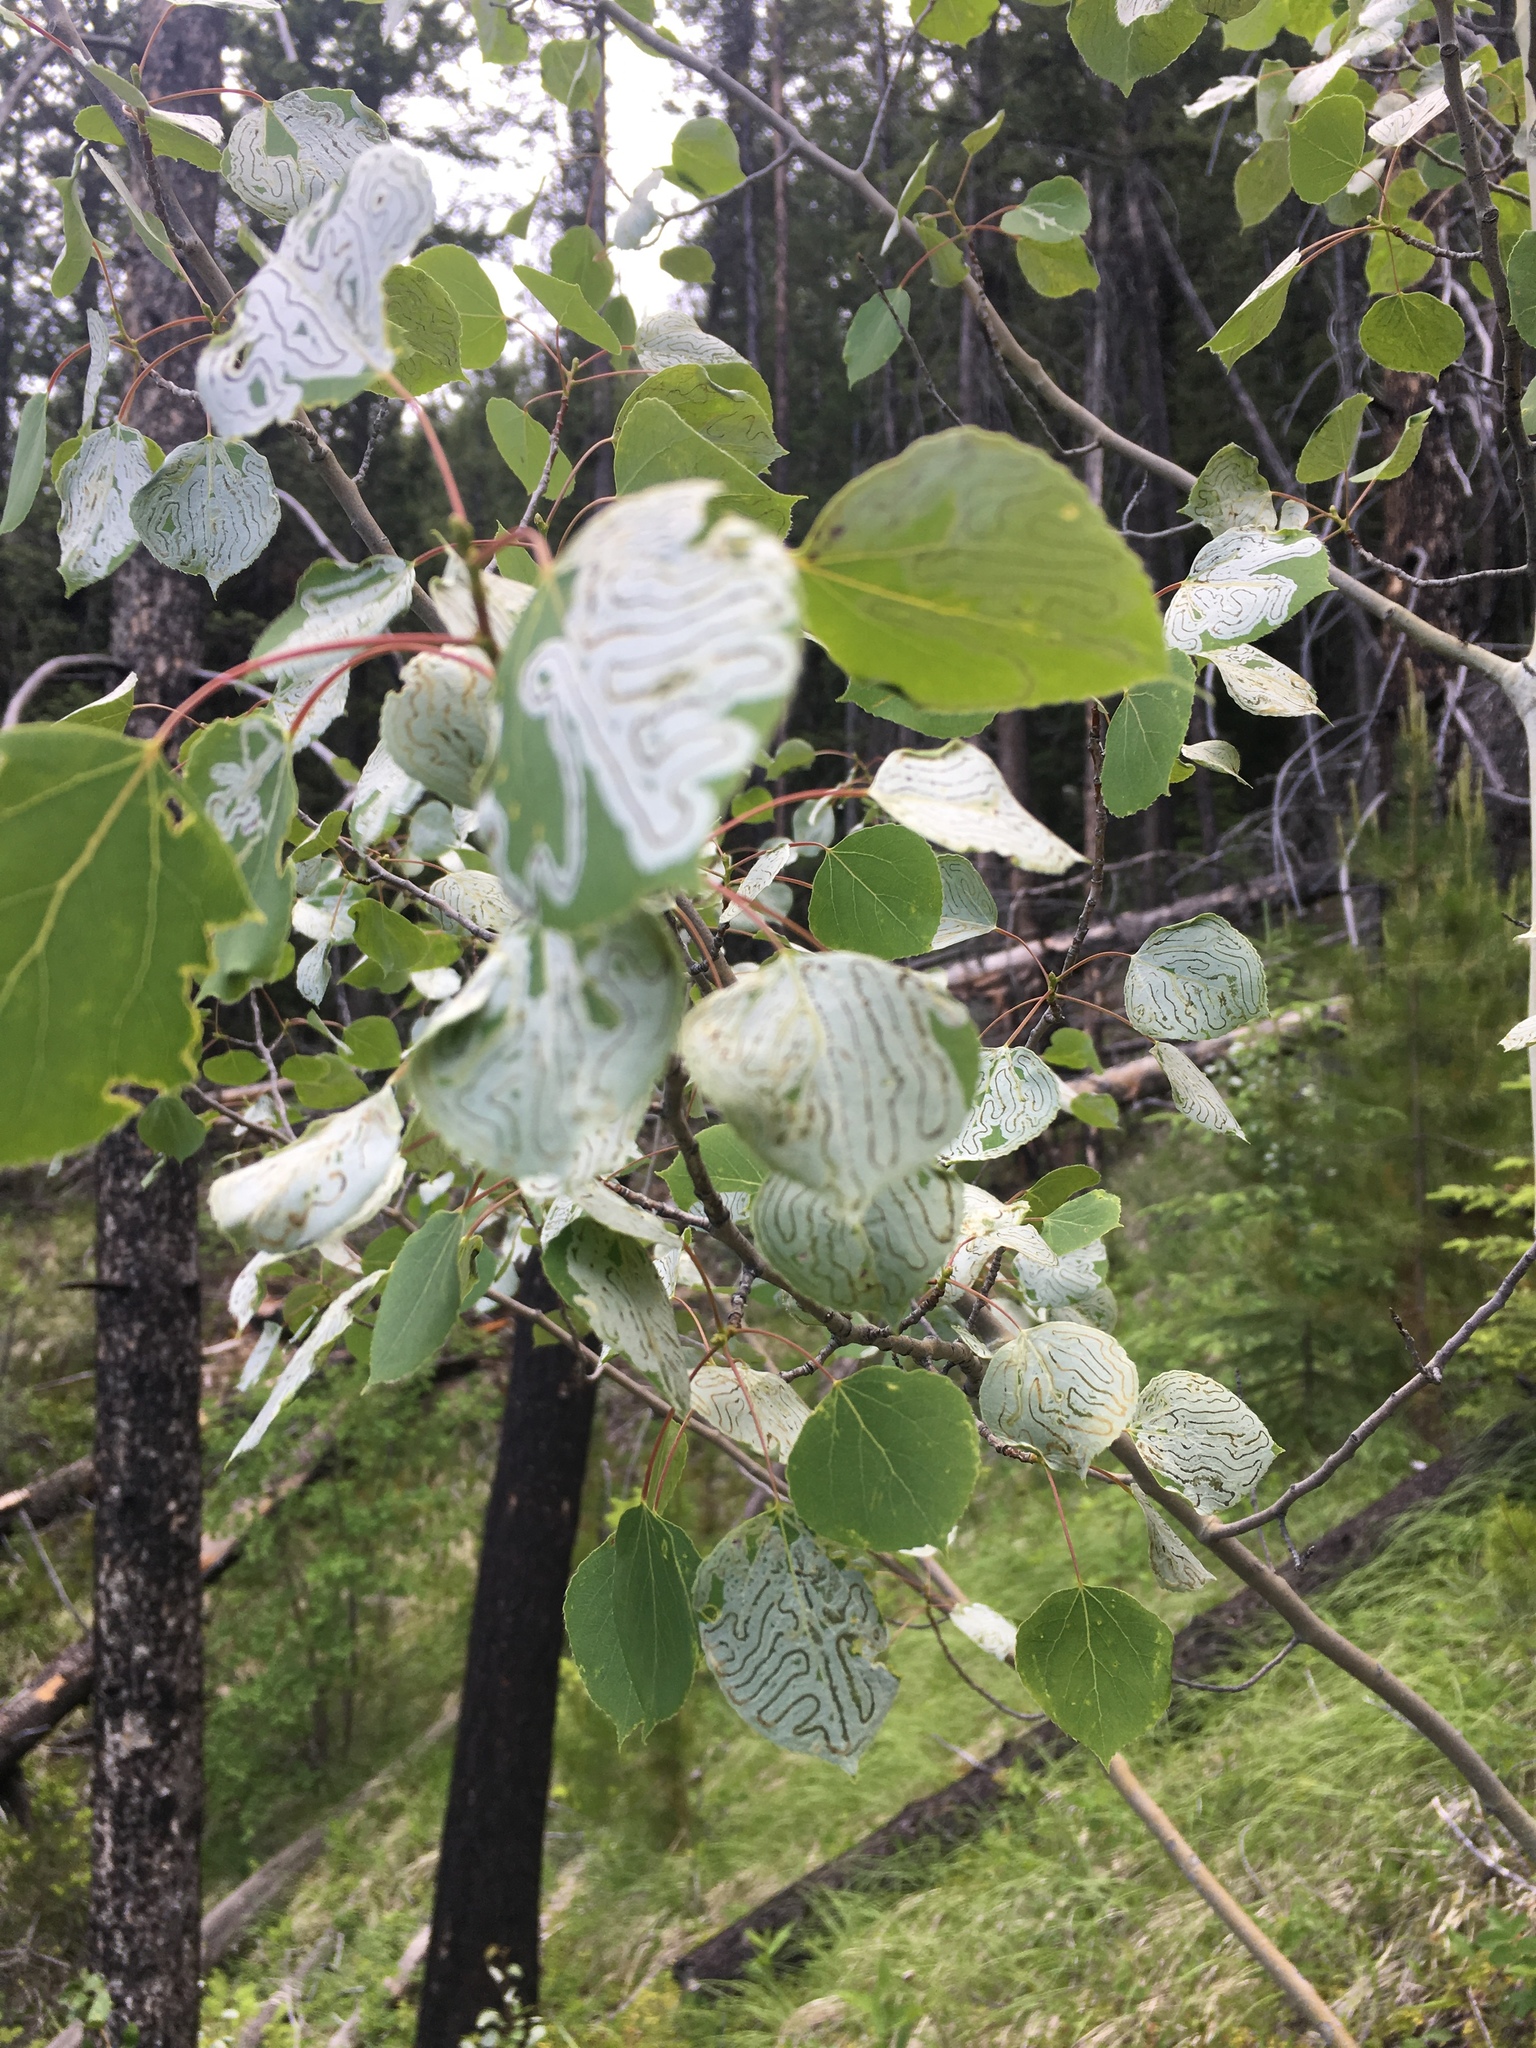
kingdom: Plantae
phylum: Tracheophyta
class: Magnoliopsida
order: Malpighiales
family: Salicaceae
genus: Populus
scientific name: Populus tremuloides
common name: Quaking aspen
